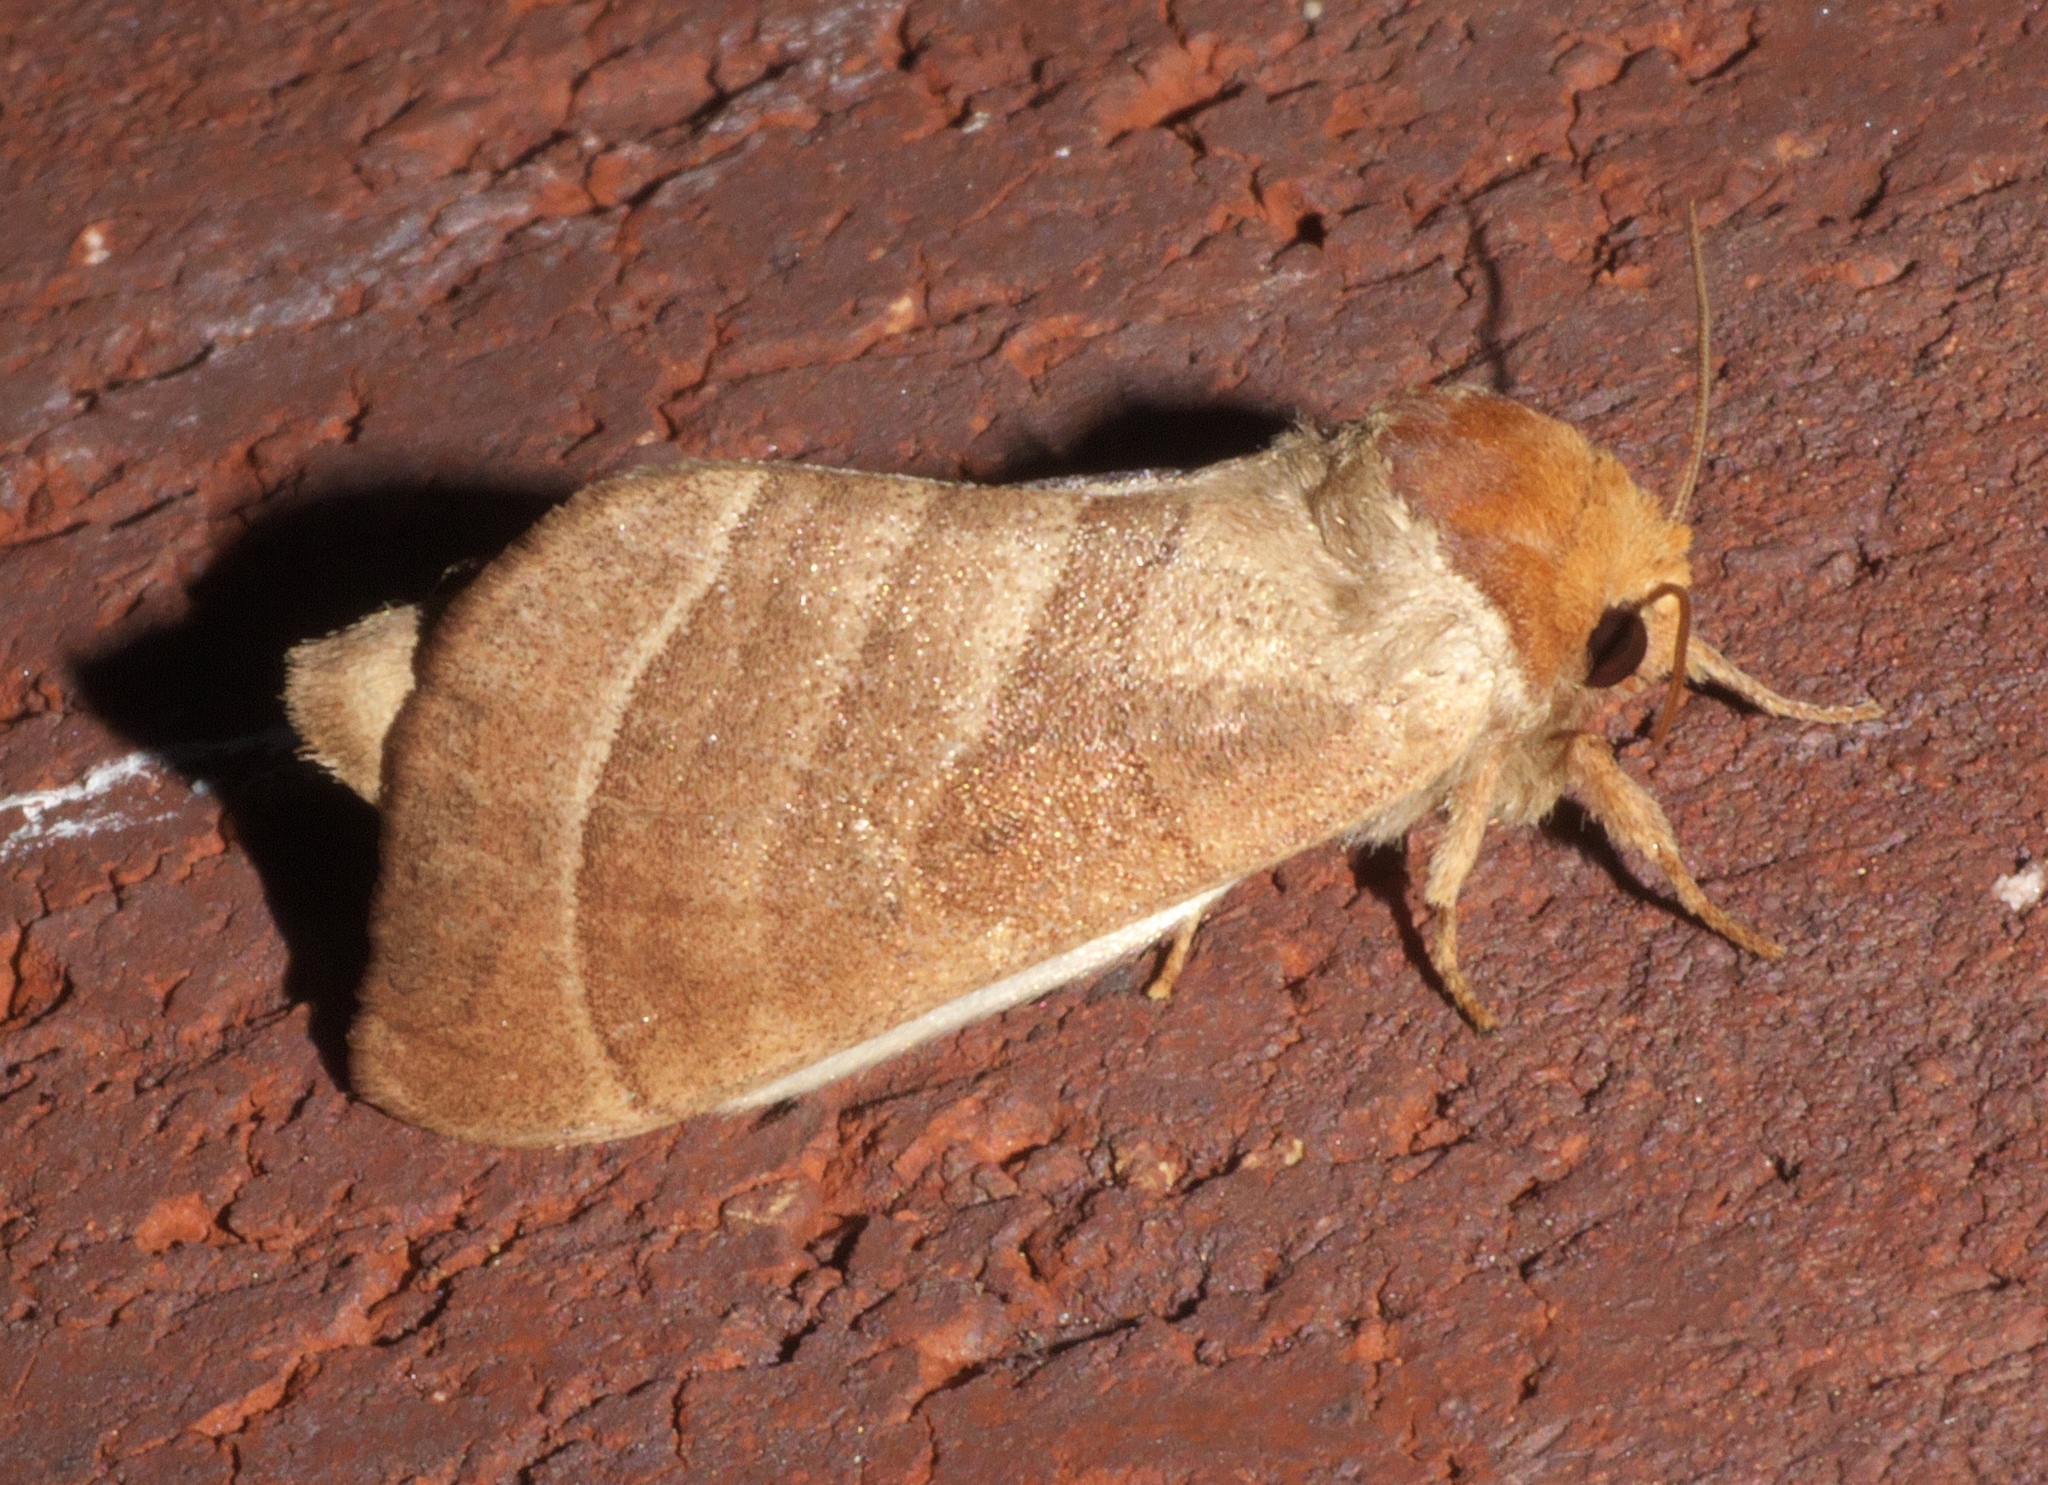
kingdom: Animalia
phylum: Arthropoda
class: Insecta
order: Lepidoptera
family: Notodontidae
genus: Datana
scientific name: Datana integerrima
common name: Walnut caterpillar
